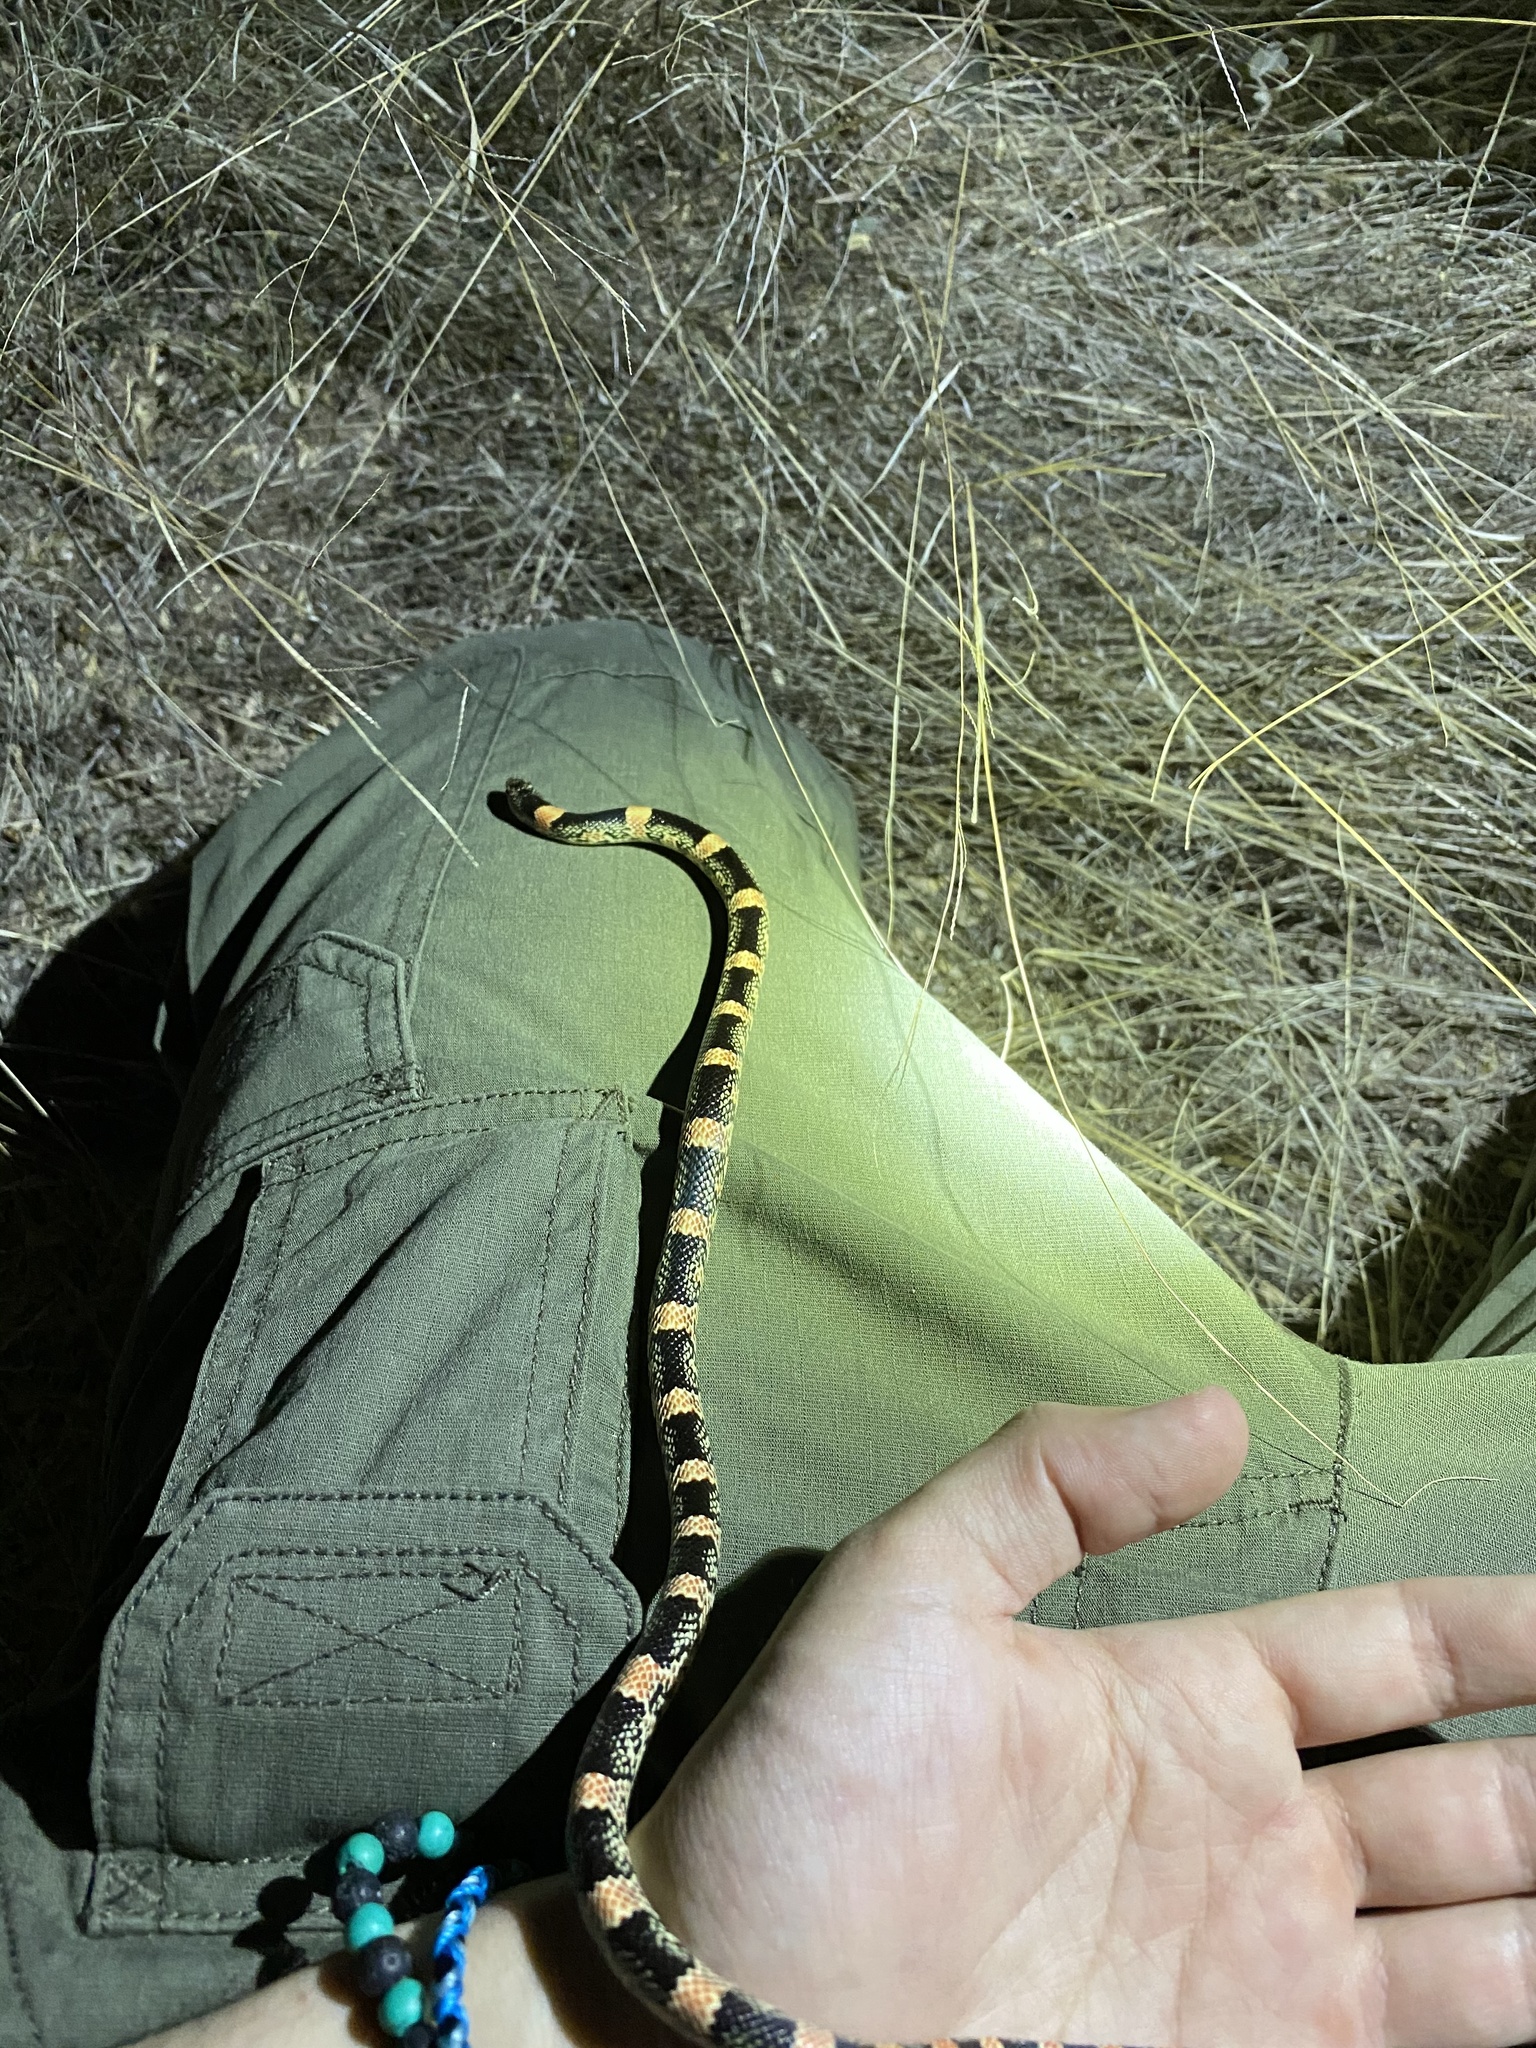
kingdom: Animalia
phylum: Chordata
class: Squamata
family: Colubridae
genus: Rhinocheilus
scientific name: Rhinocheilus lecontei
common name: Longnose snake
